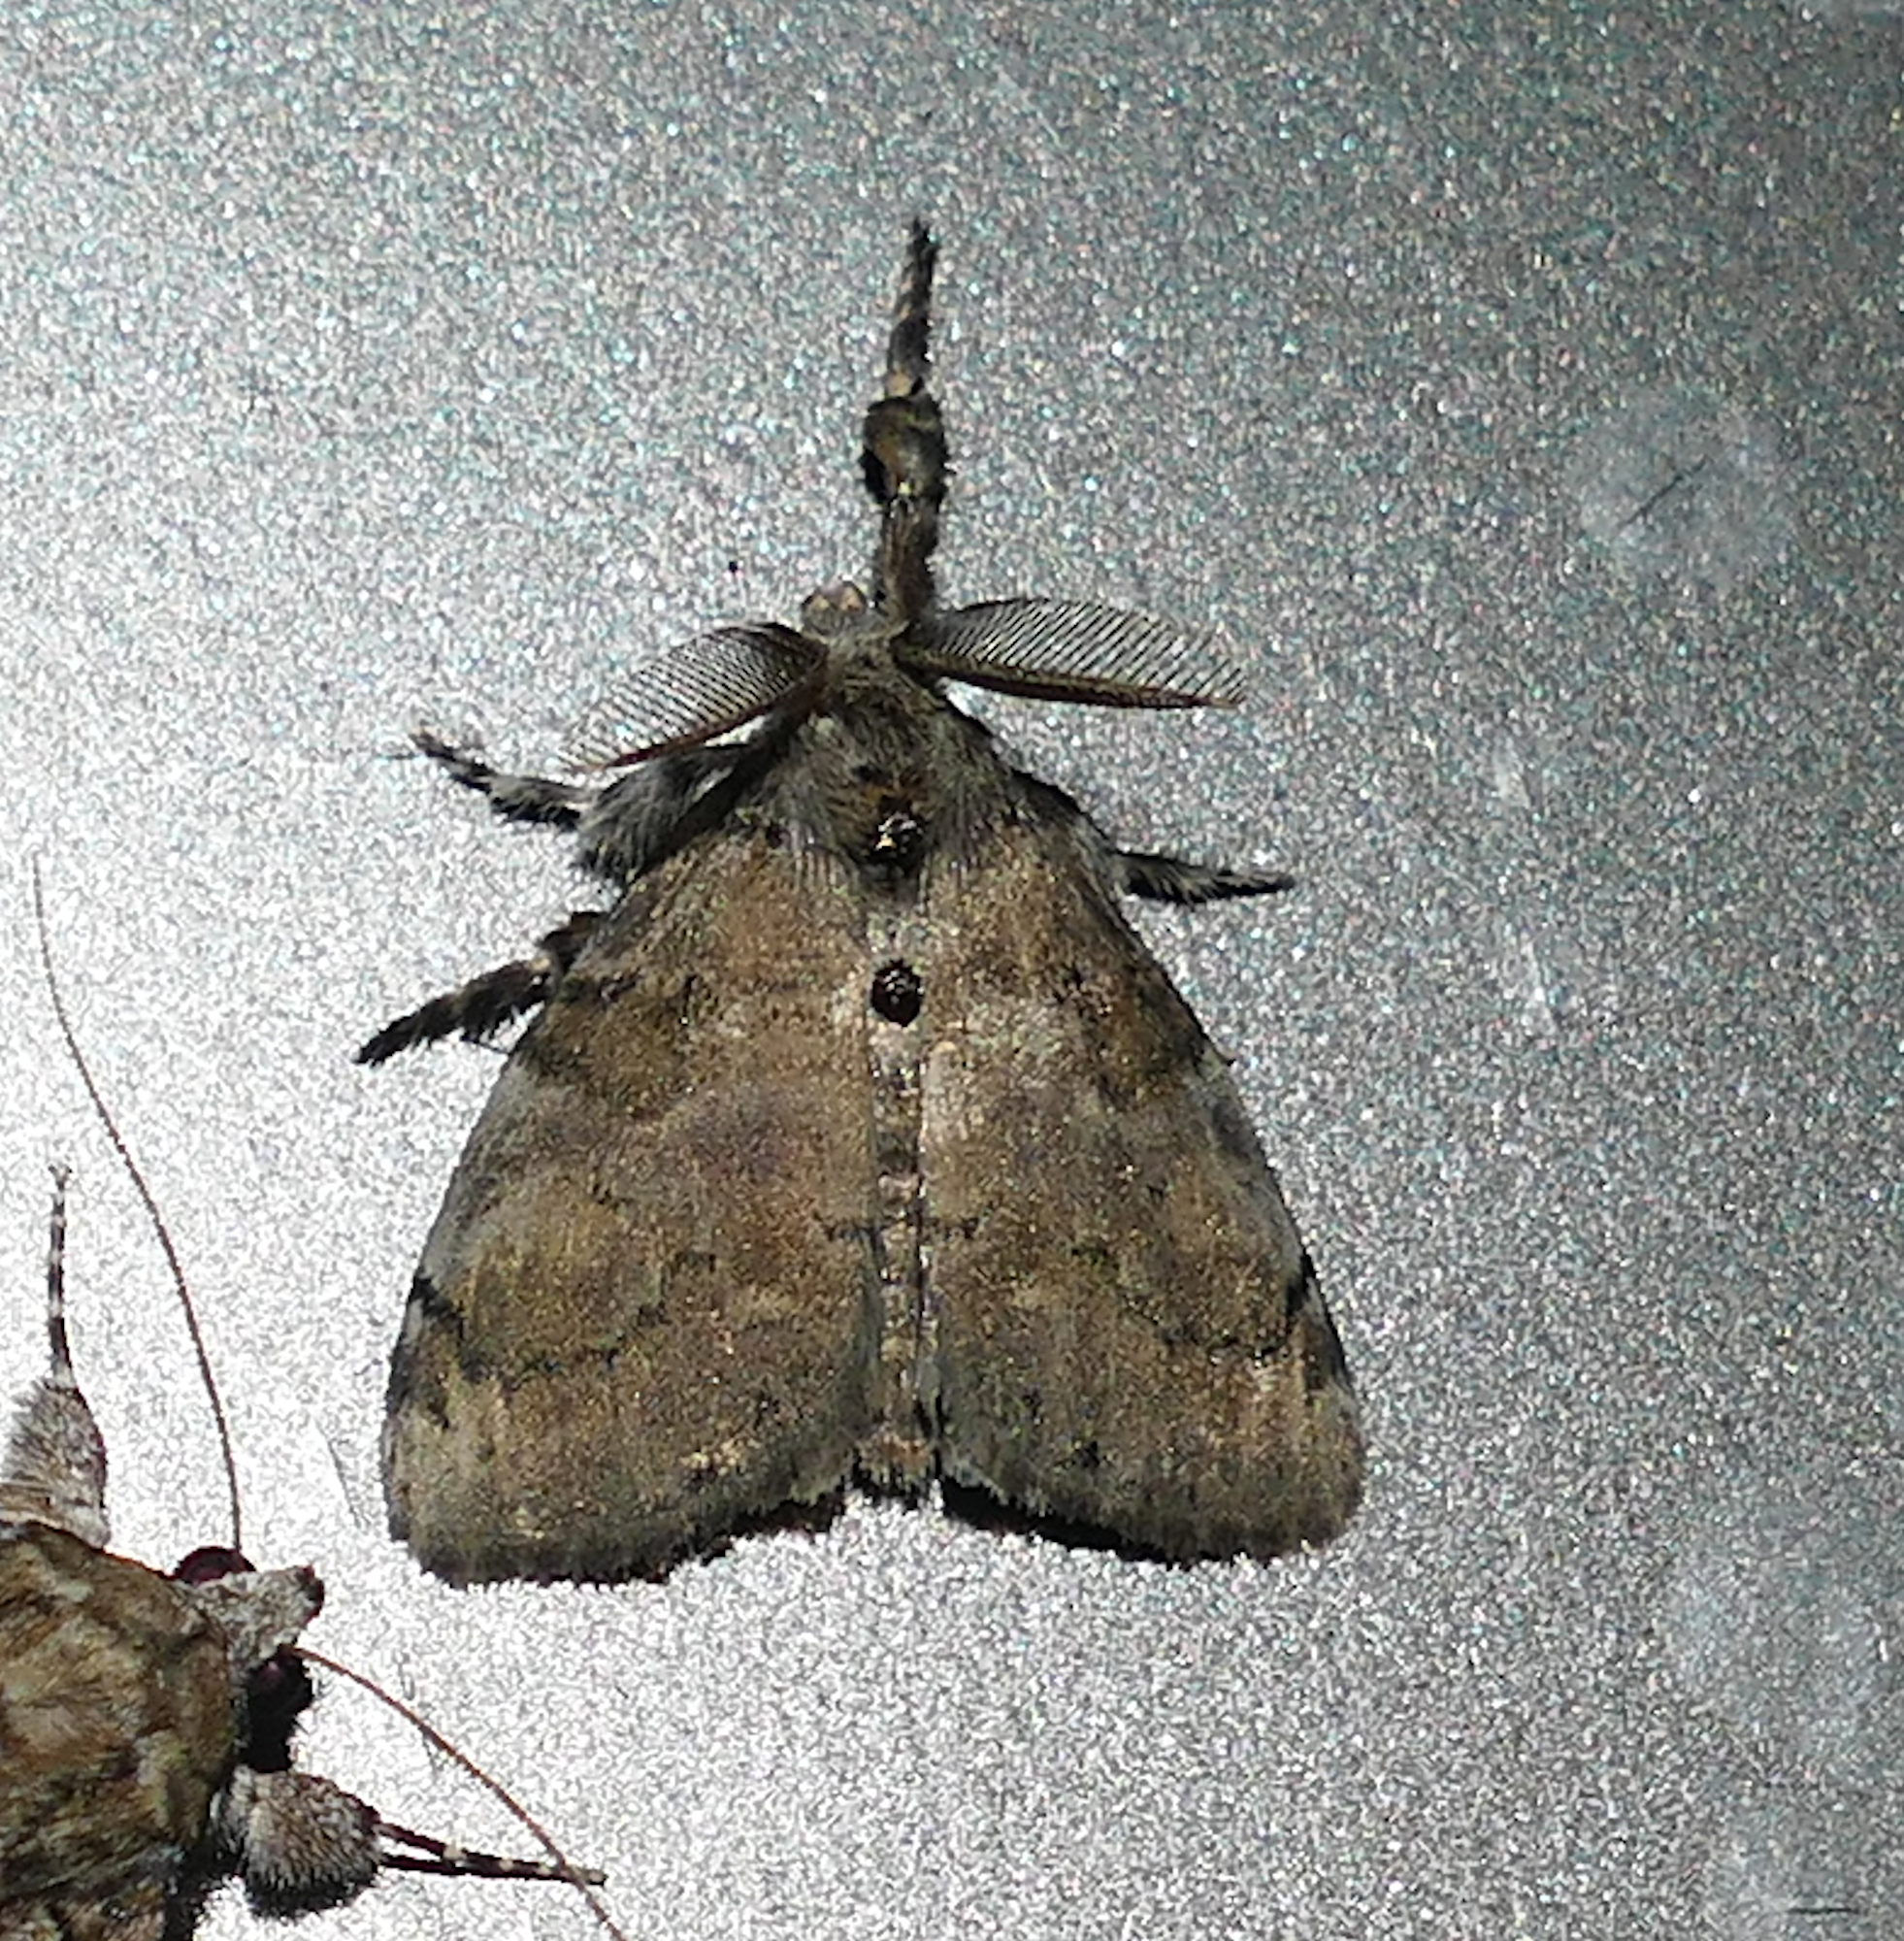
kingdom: Animalia
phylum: Arthropoda
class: Insecta
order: Lepidoptera
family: Erebidae
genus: Orgyia
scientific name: Orgyia leucostigma
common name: White-marked tussock moth
